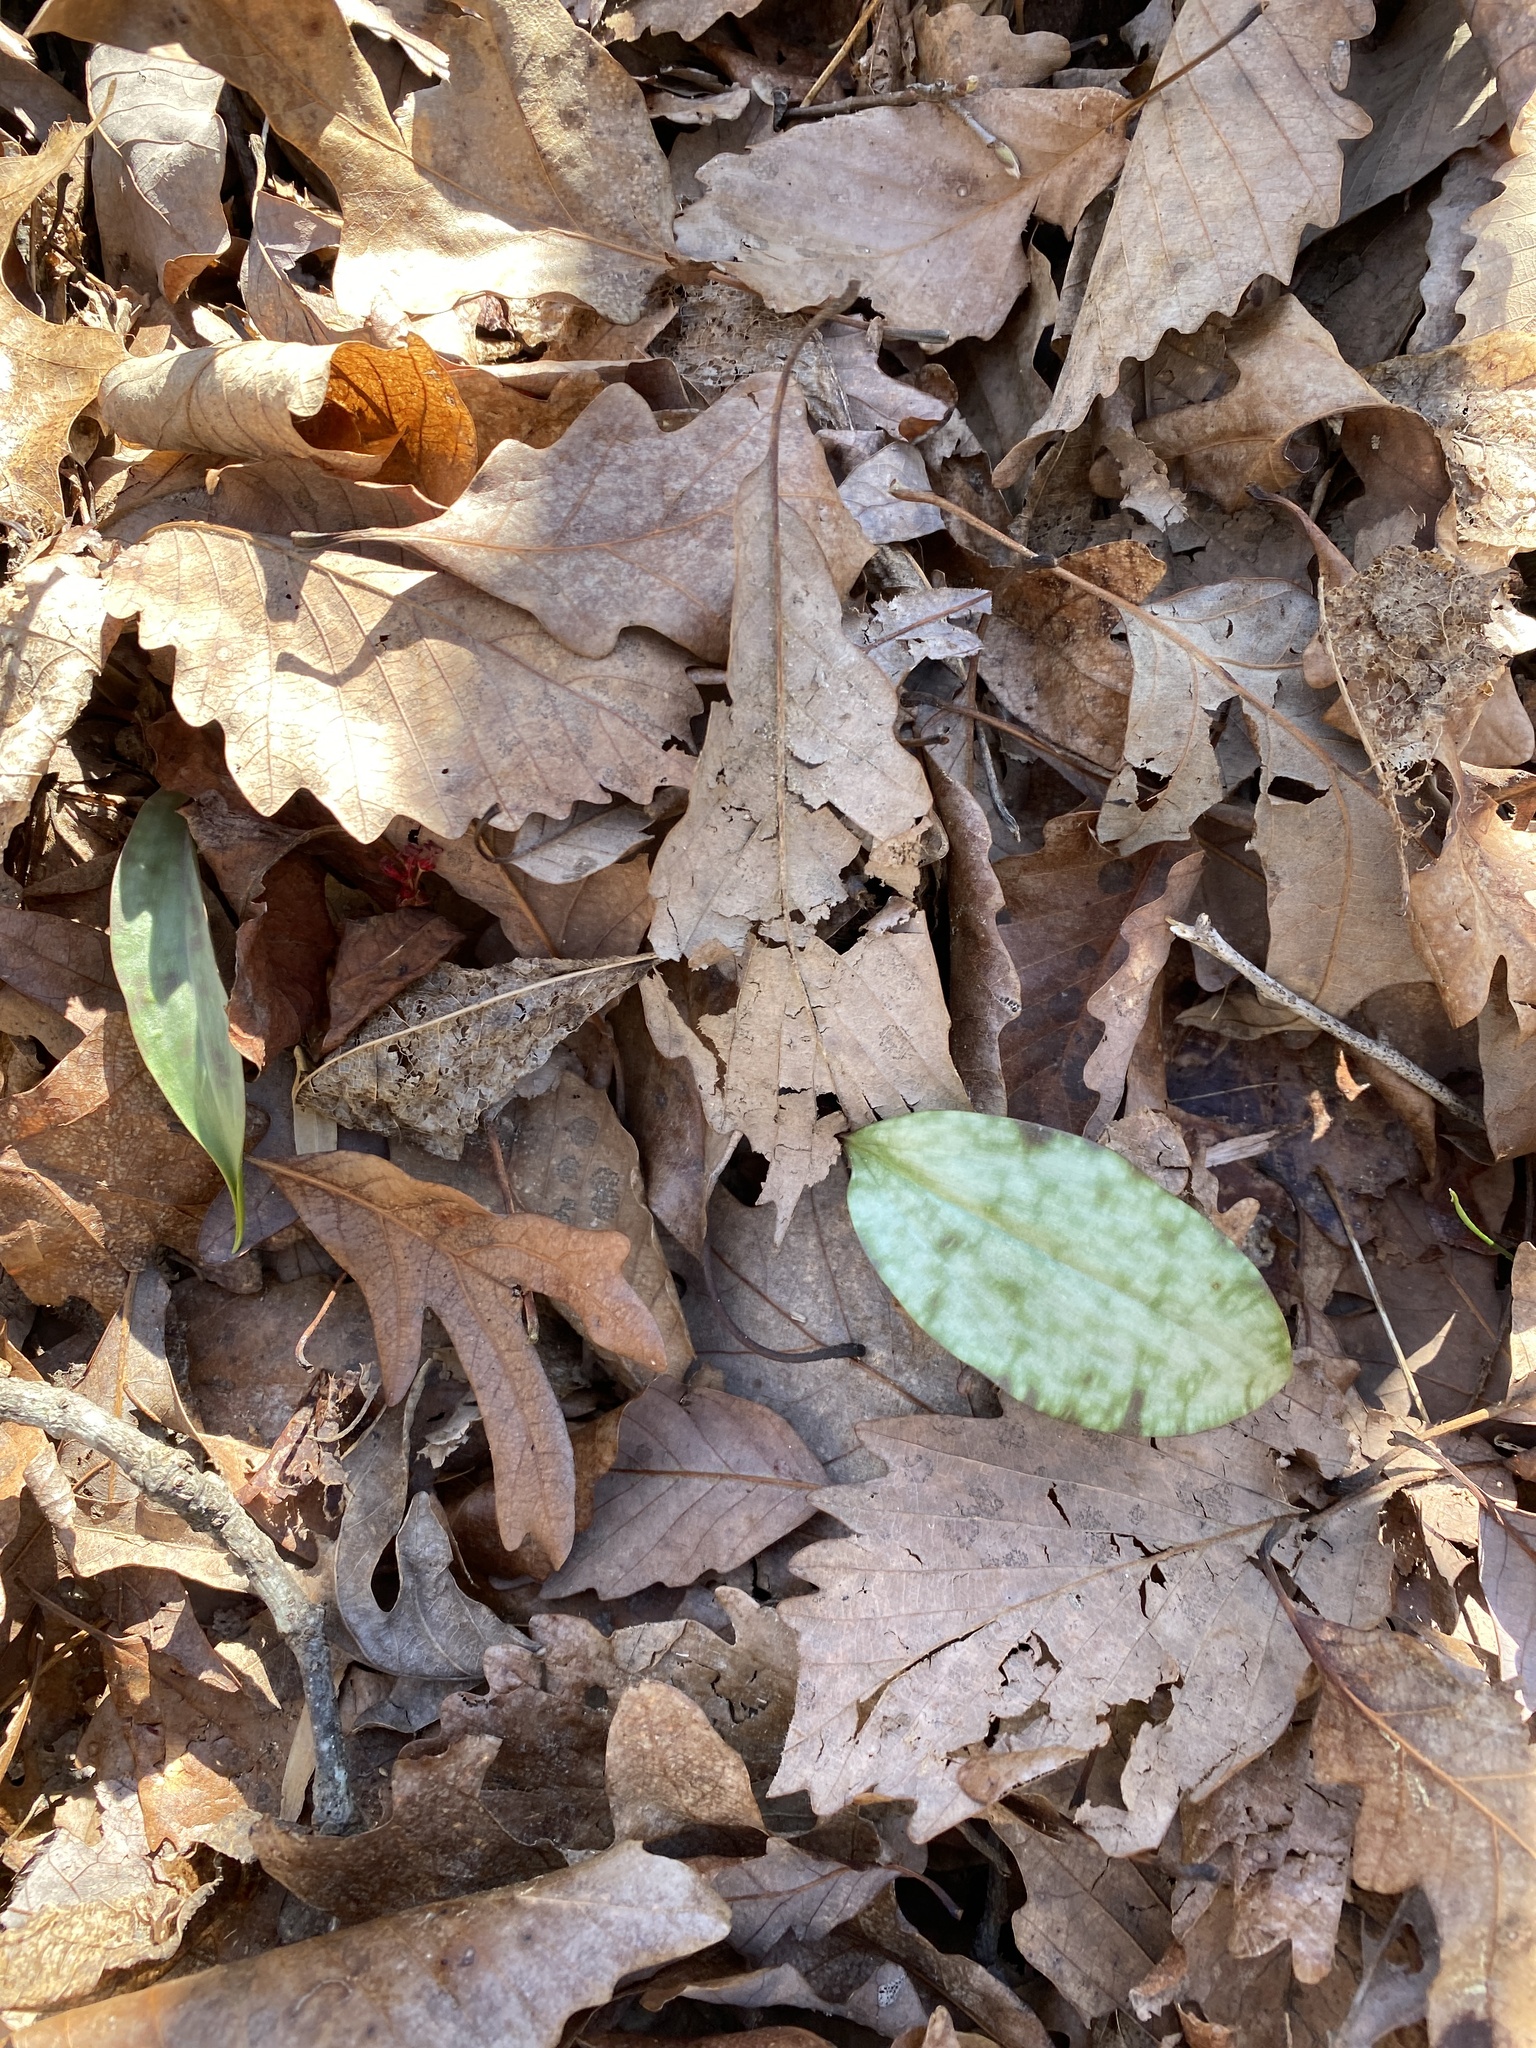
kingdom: Plantae
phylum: Tracheophyta
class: Liliopsida
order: Liliales
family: Liliaceae
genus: Erythronium
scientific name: Erythronium umbilicatum
